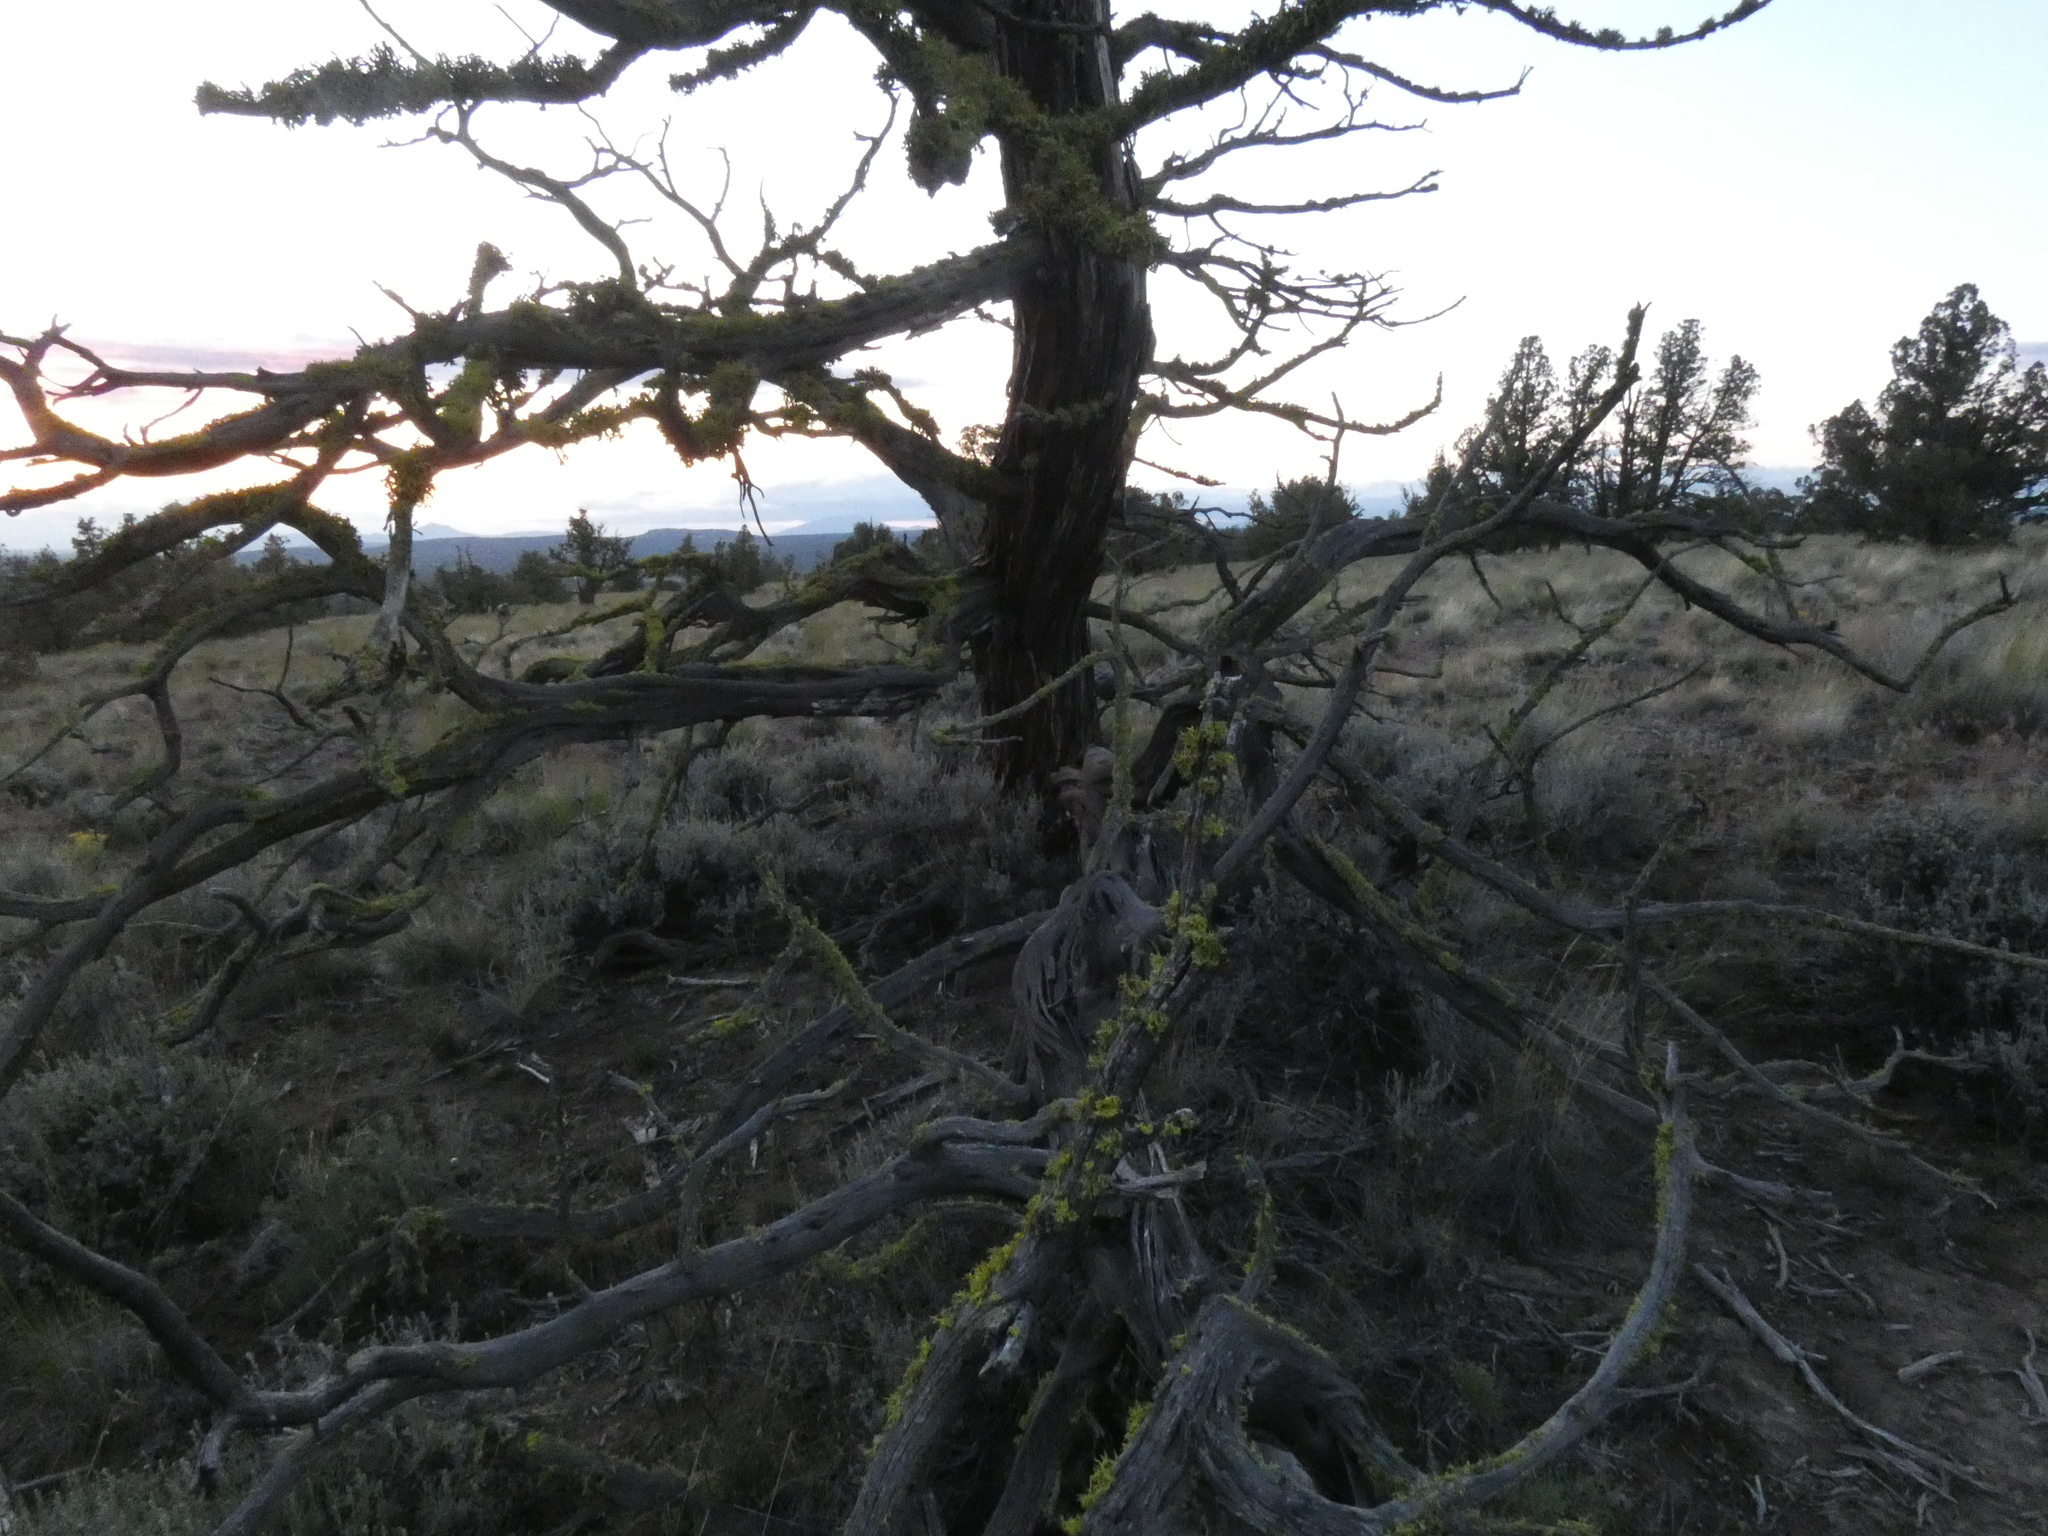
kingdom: Fungi
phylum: Ascomycota
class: Lecanoromycetes
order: Lecanorales
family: Parmeliaceae
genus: Letharia
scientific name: Letharia vulpina
